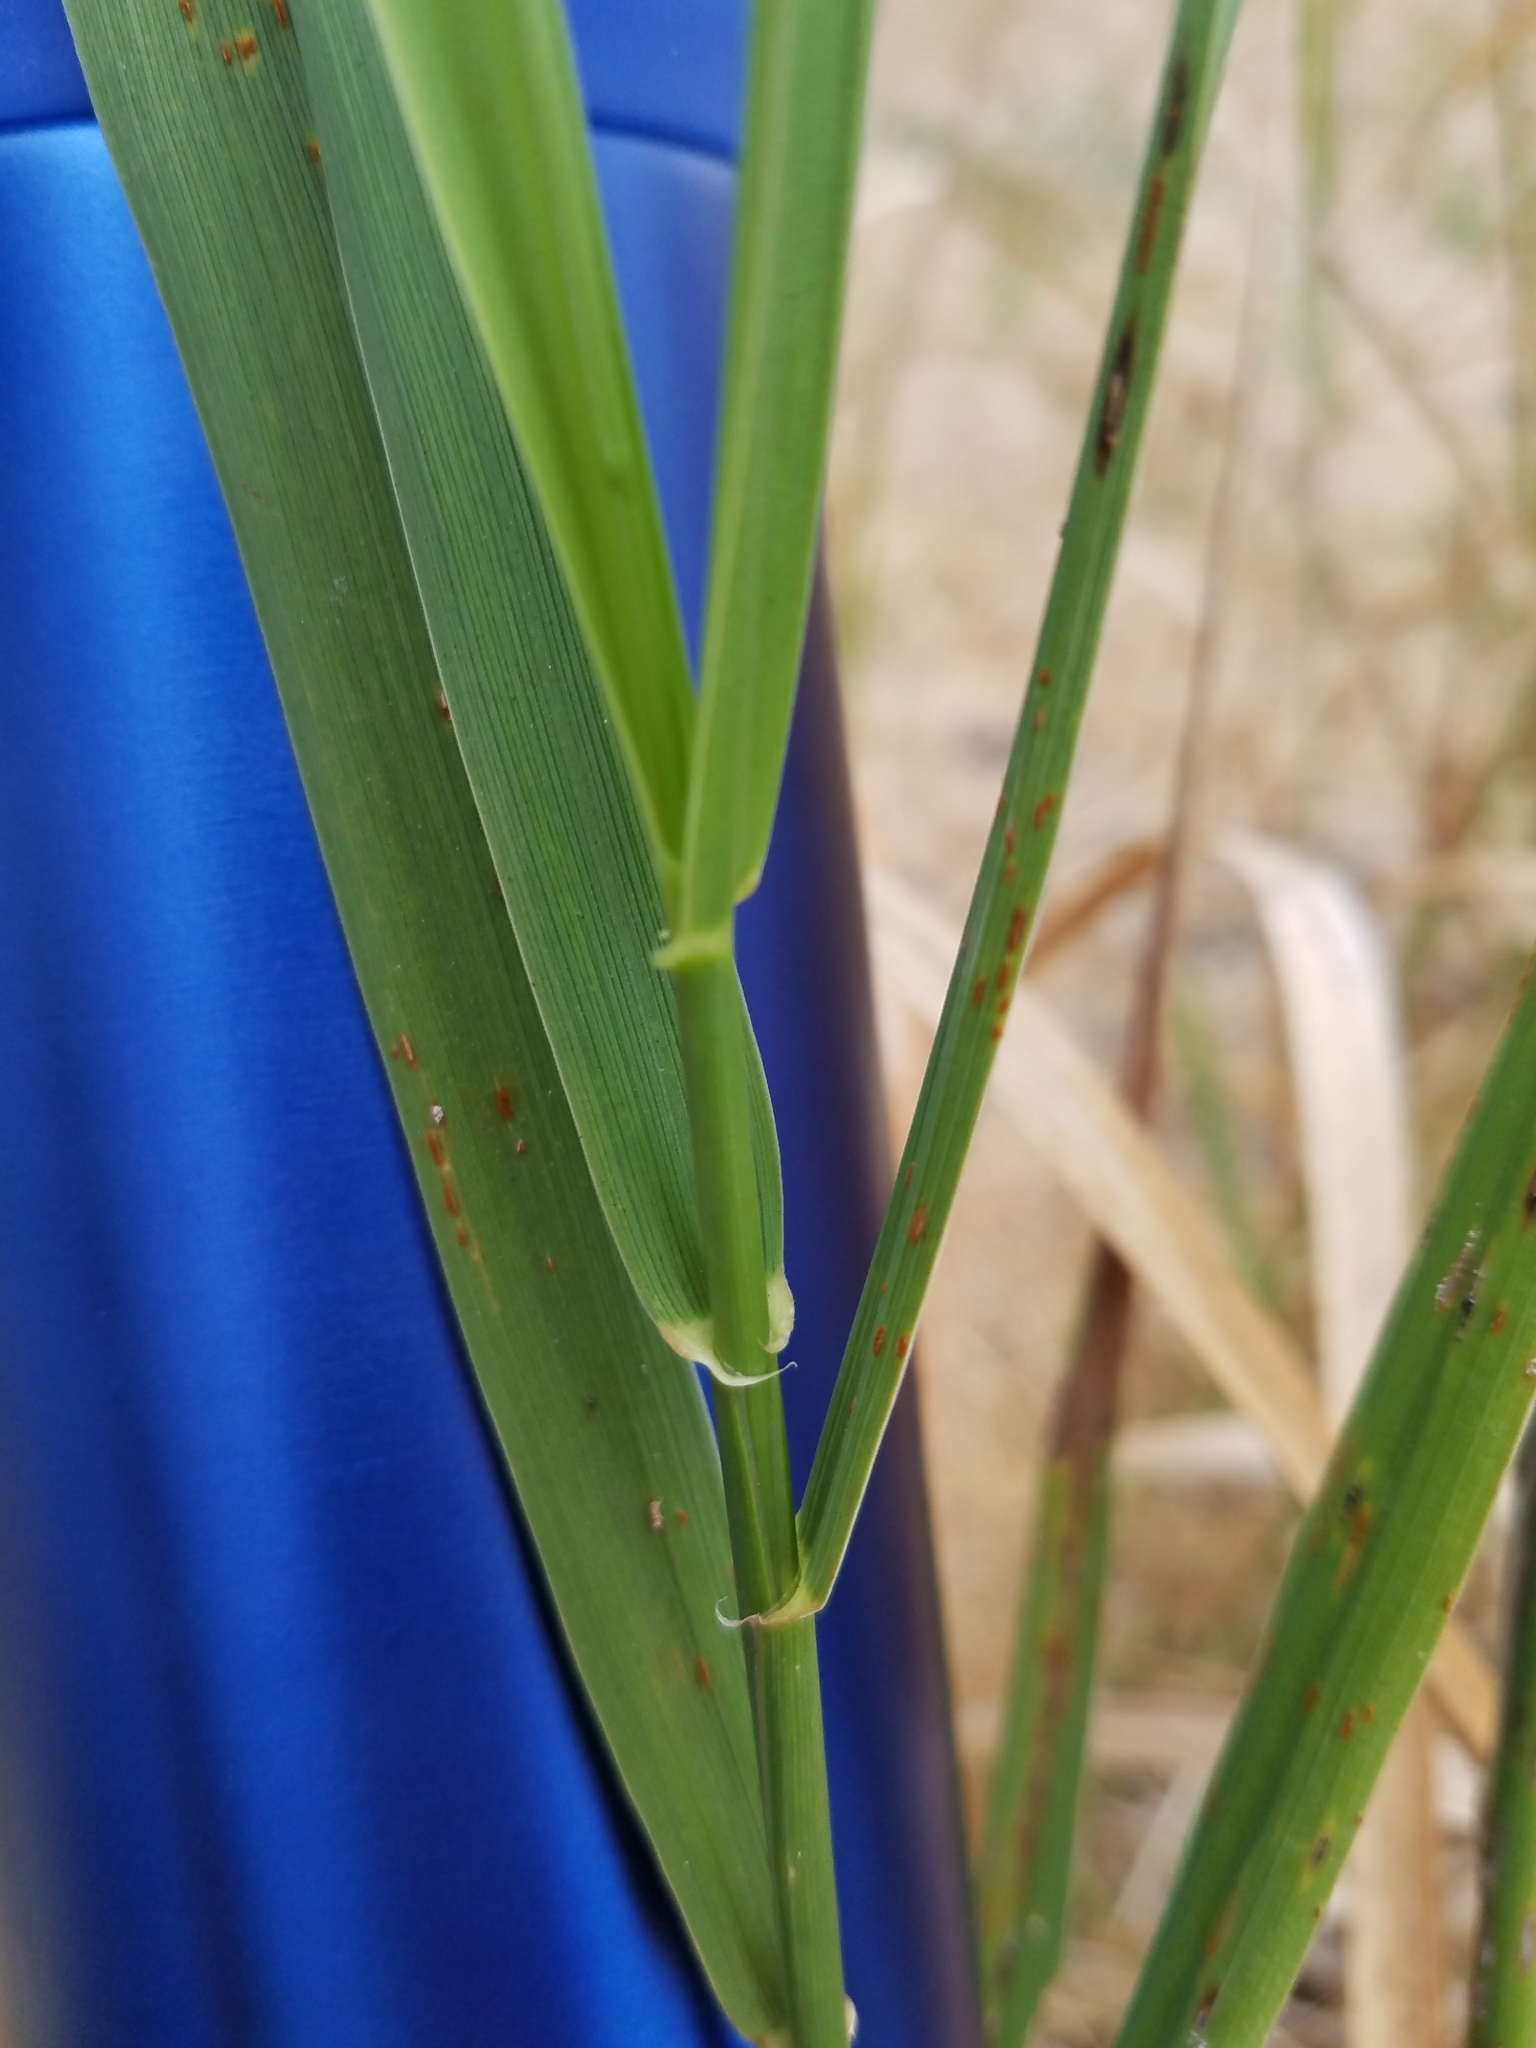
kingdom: Plantae
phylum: Tracheophyta
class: Liliopsida
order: Poales
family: Poaceae
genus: Leymus
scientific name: Leymus triticoides
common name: Beardless wild rye
